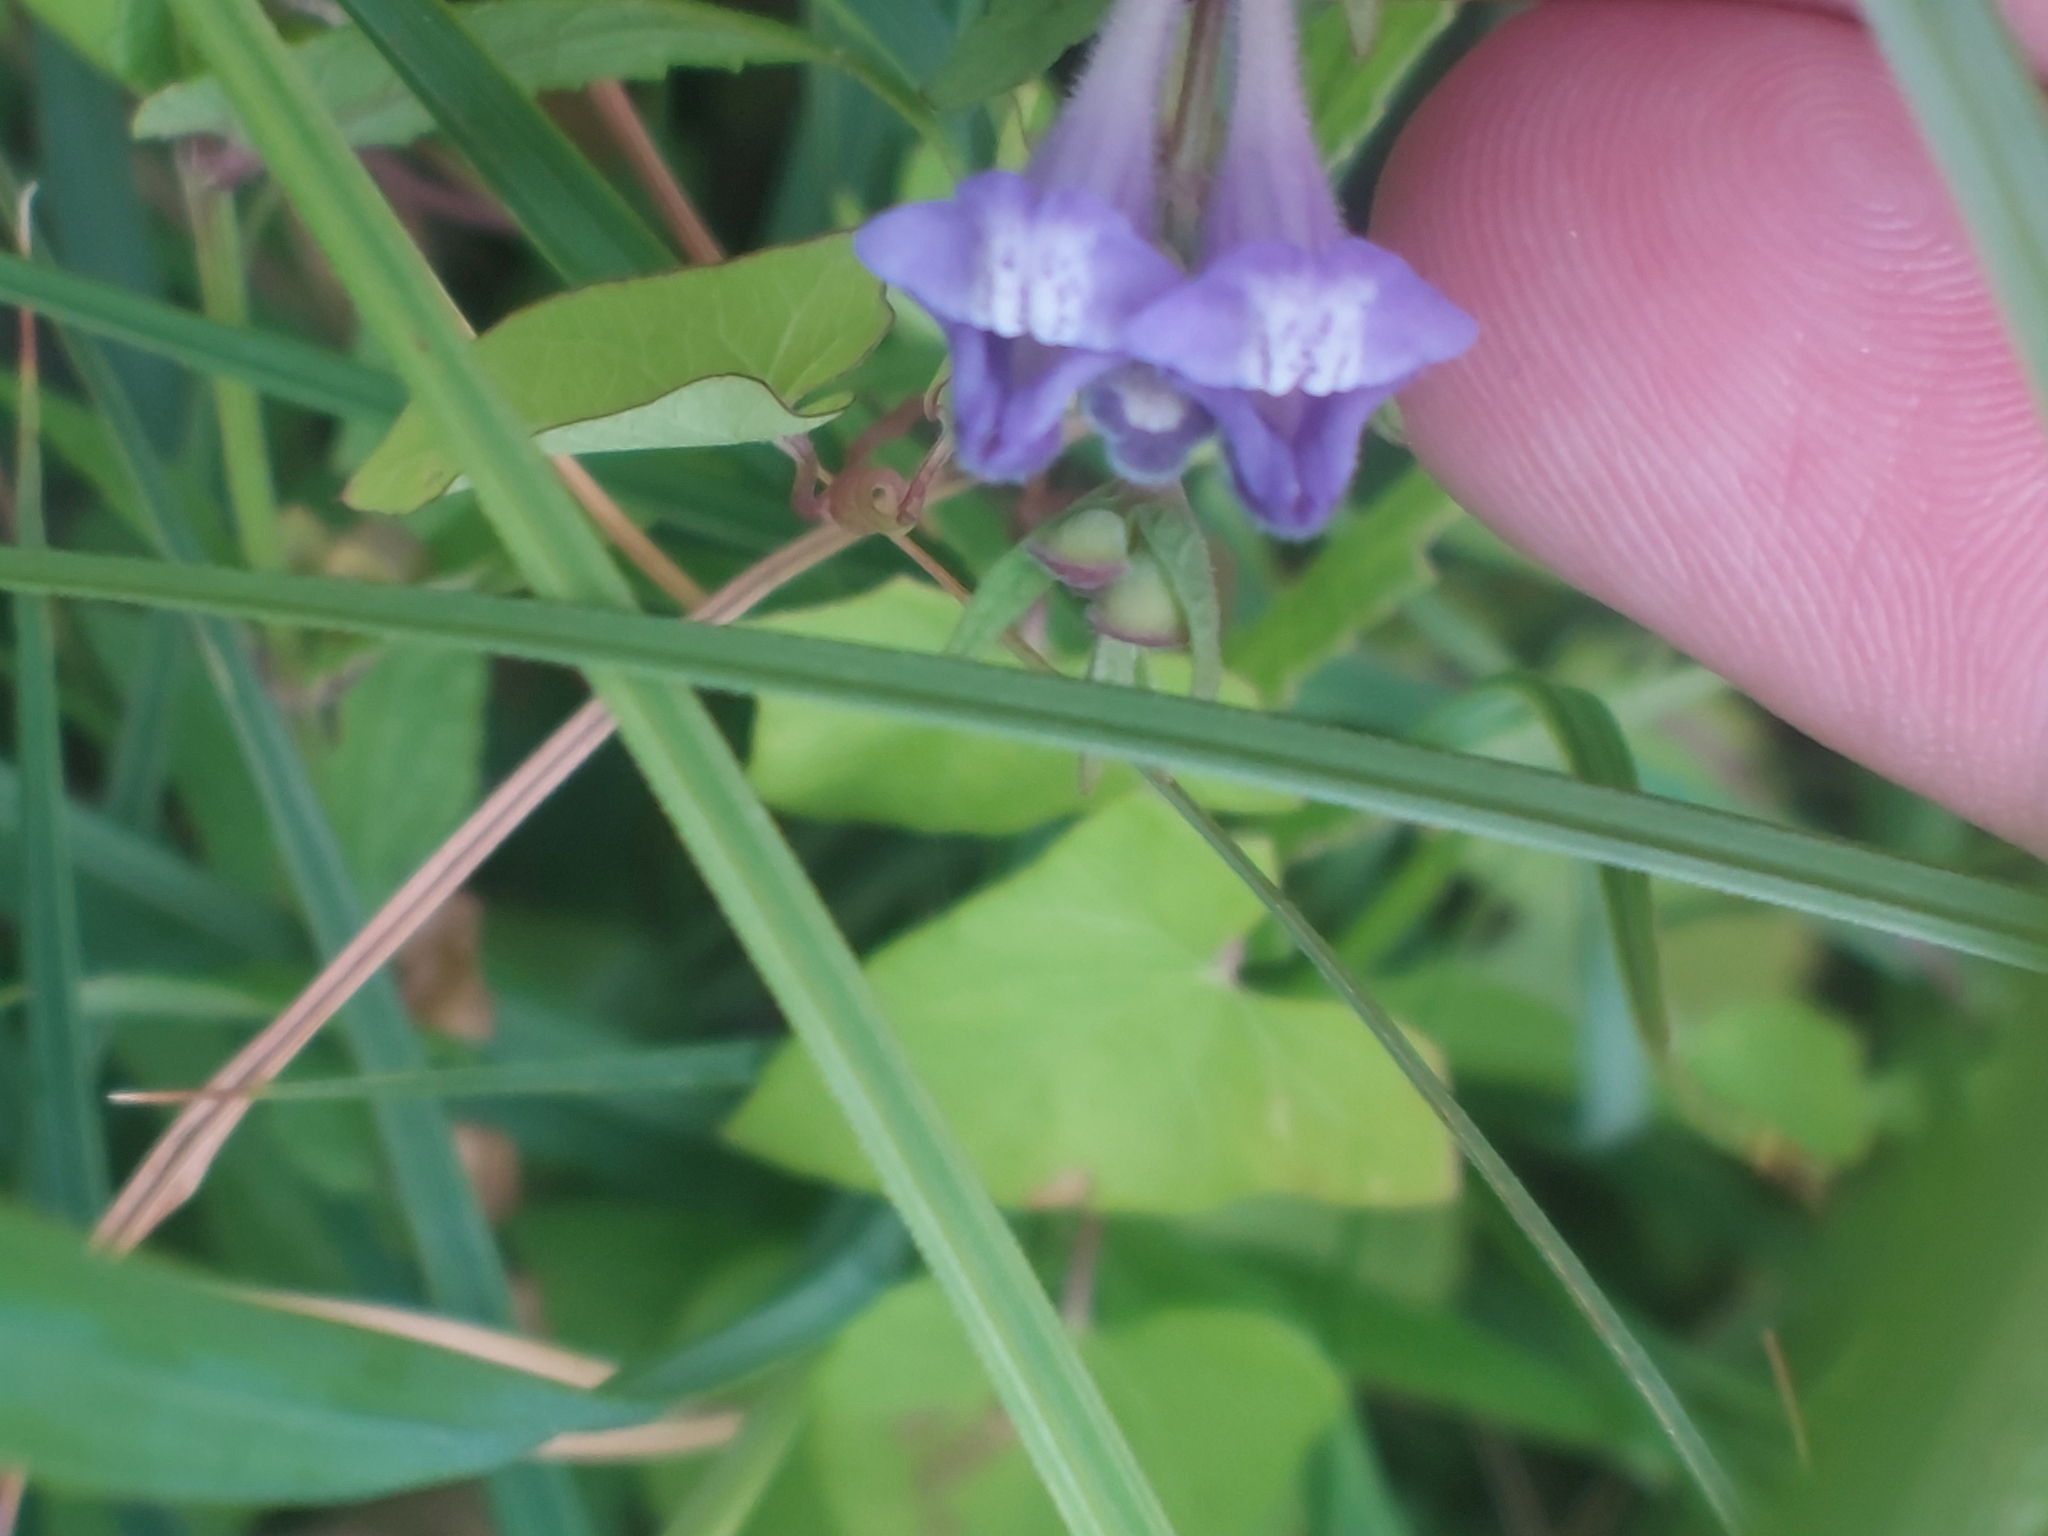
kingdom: Plantae
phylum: Tracheophyta
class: Magnoliopsida
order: Lamiales
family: Lamiaceae
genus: Scutellaria
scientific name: Scutellaria galericulata
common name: Skullcap
